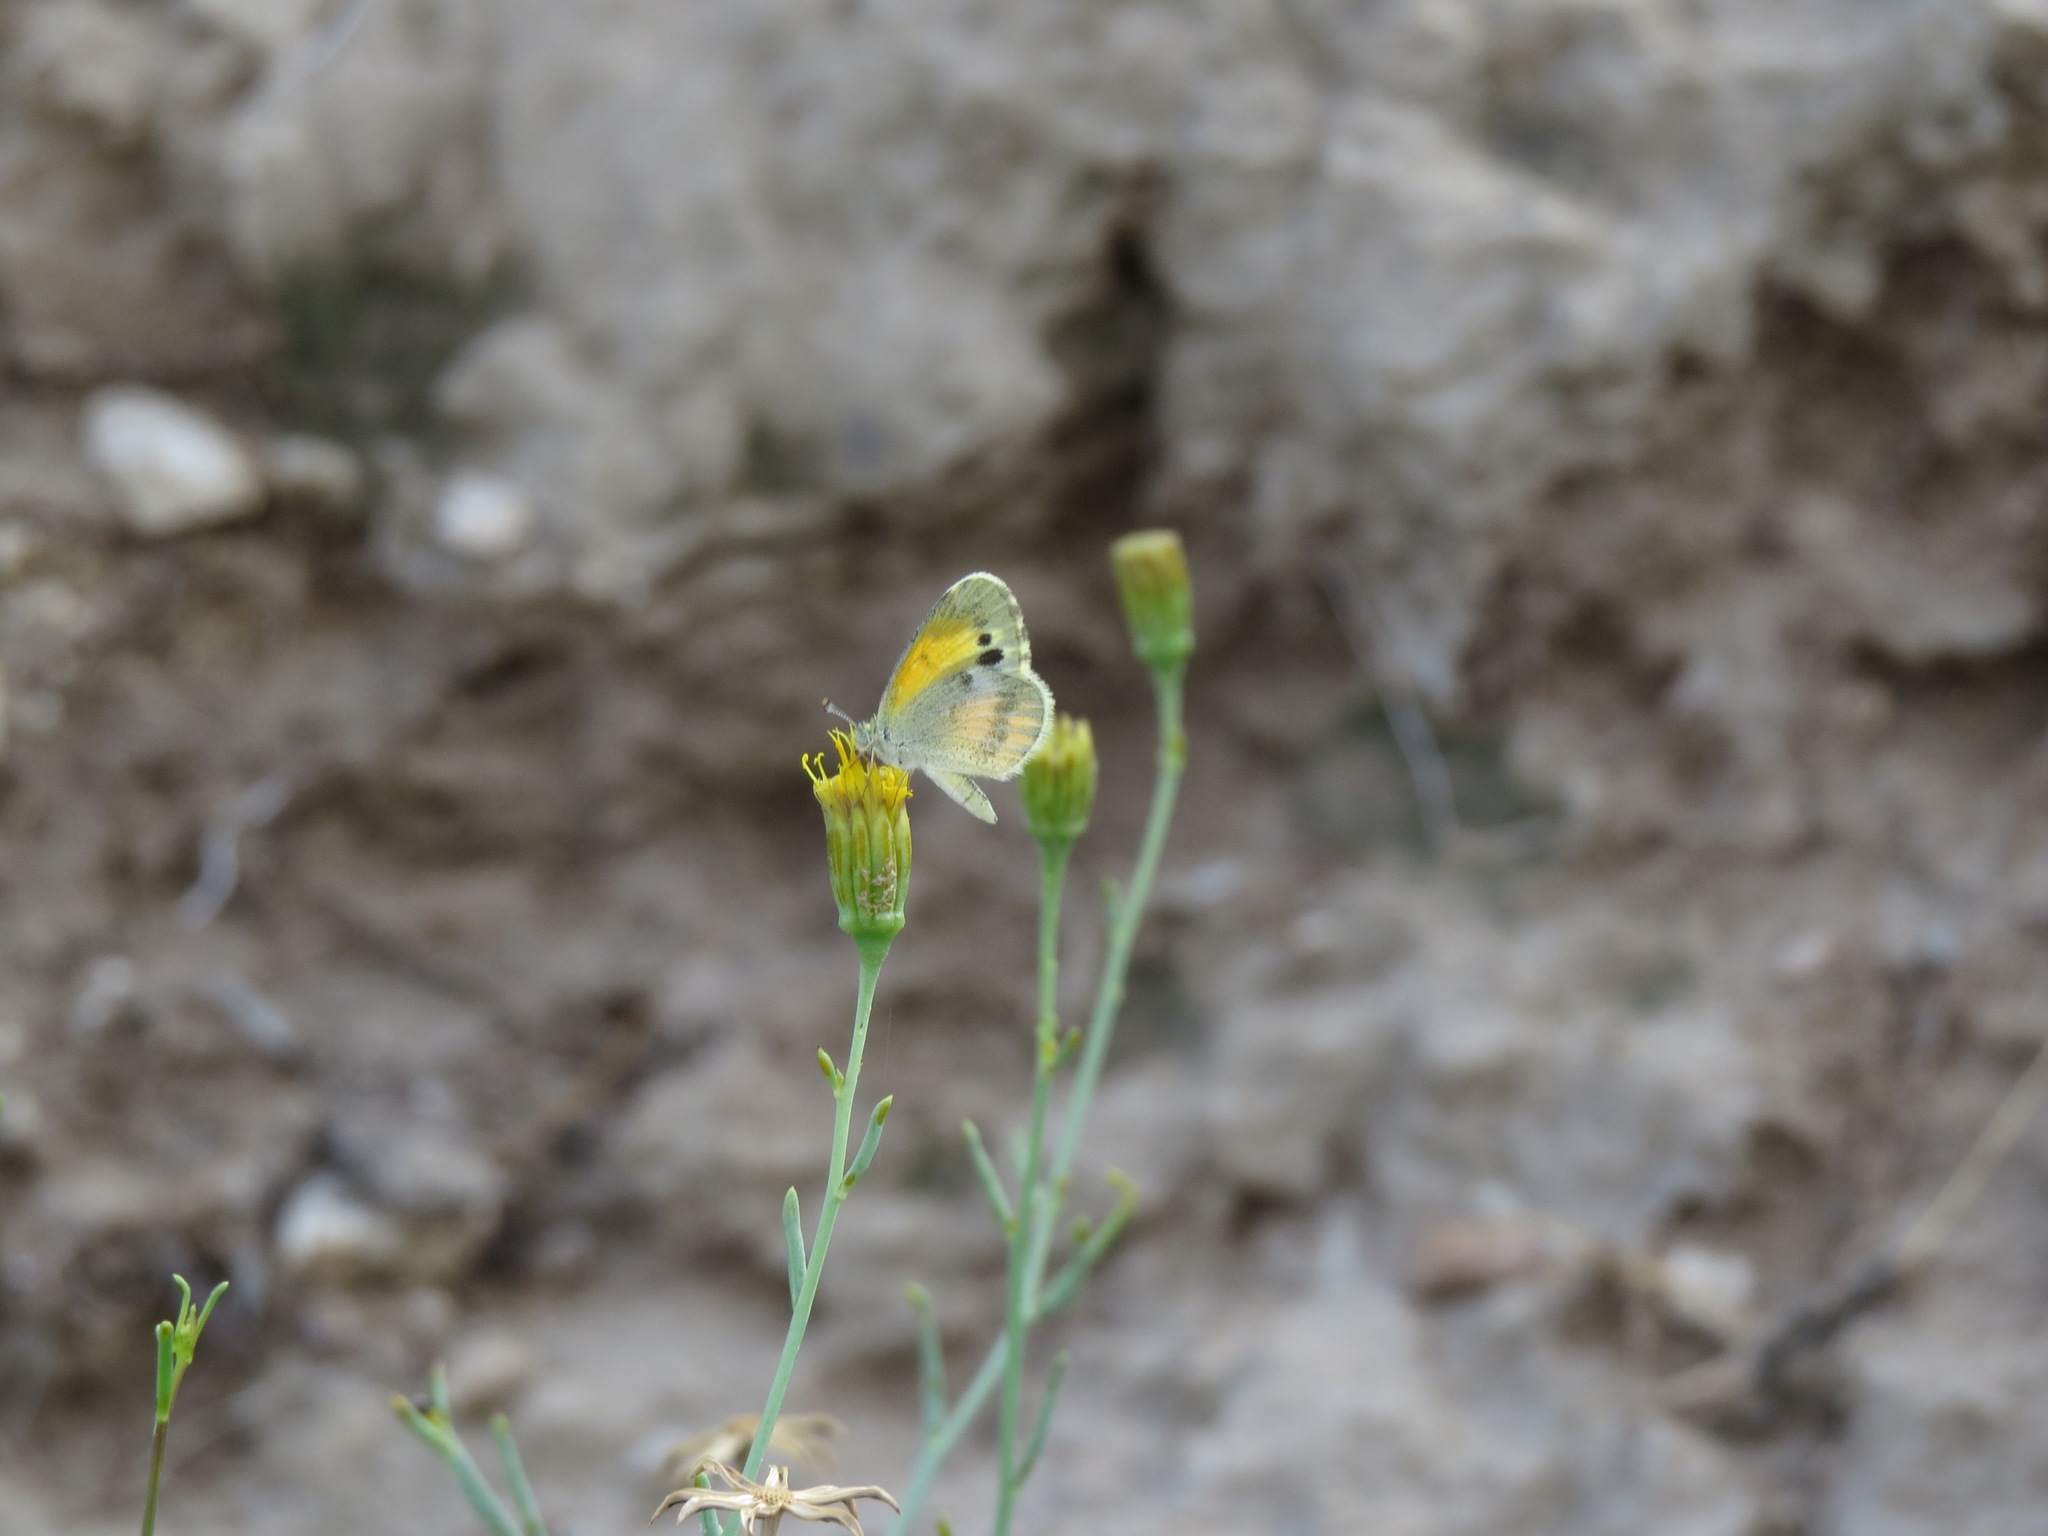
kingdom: Animalia
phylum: Arthropoda
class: Insecta
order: Lepidoptera
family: Pieridae
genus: Nathalis
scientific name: Nathalis iole
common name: Dainty sulphur
